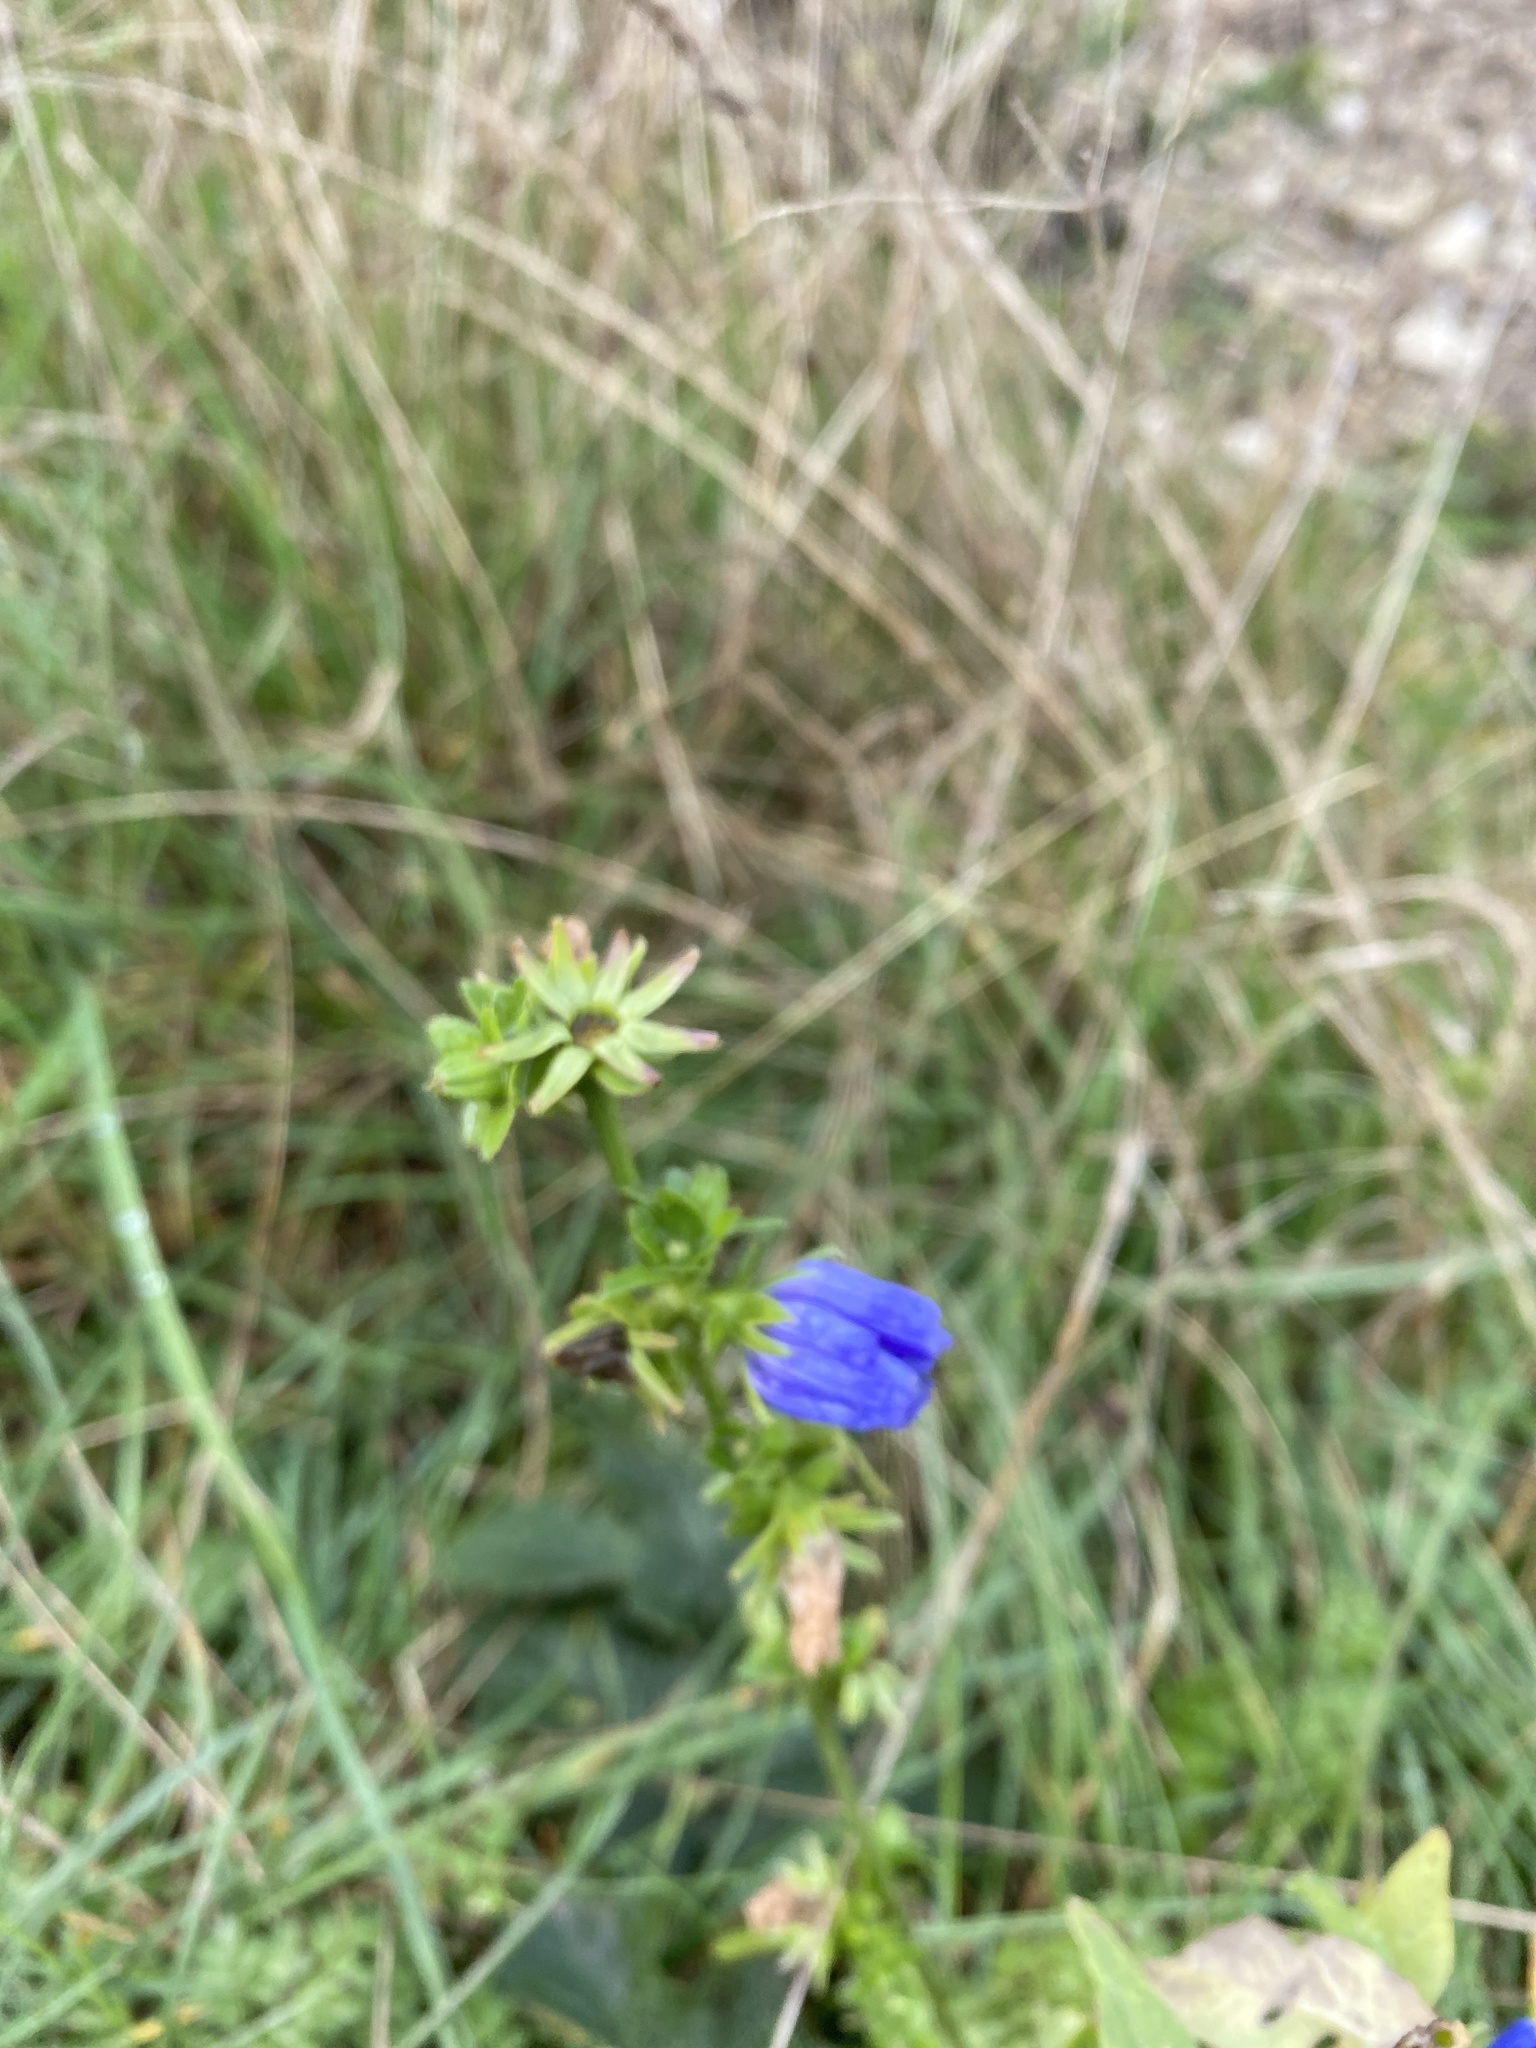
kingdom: Plantae
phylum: Tracheophyta
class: Magnoliopsida
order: Asterales
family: Asteraceae
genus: Cichorium
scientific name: Cichorium intybus
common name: Chicory
